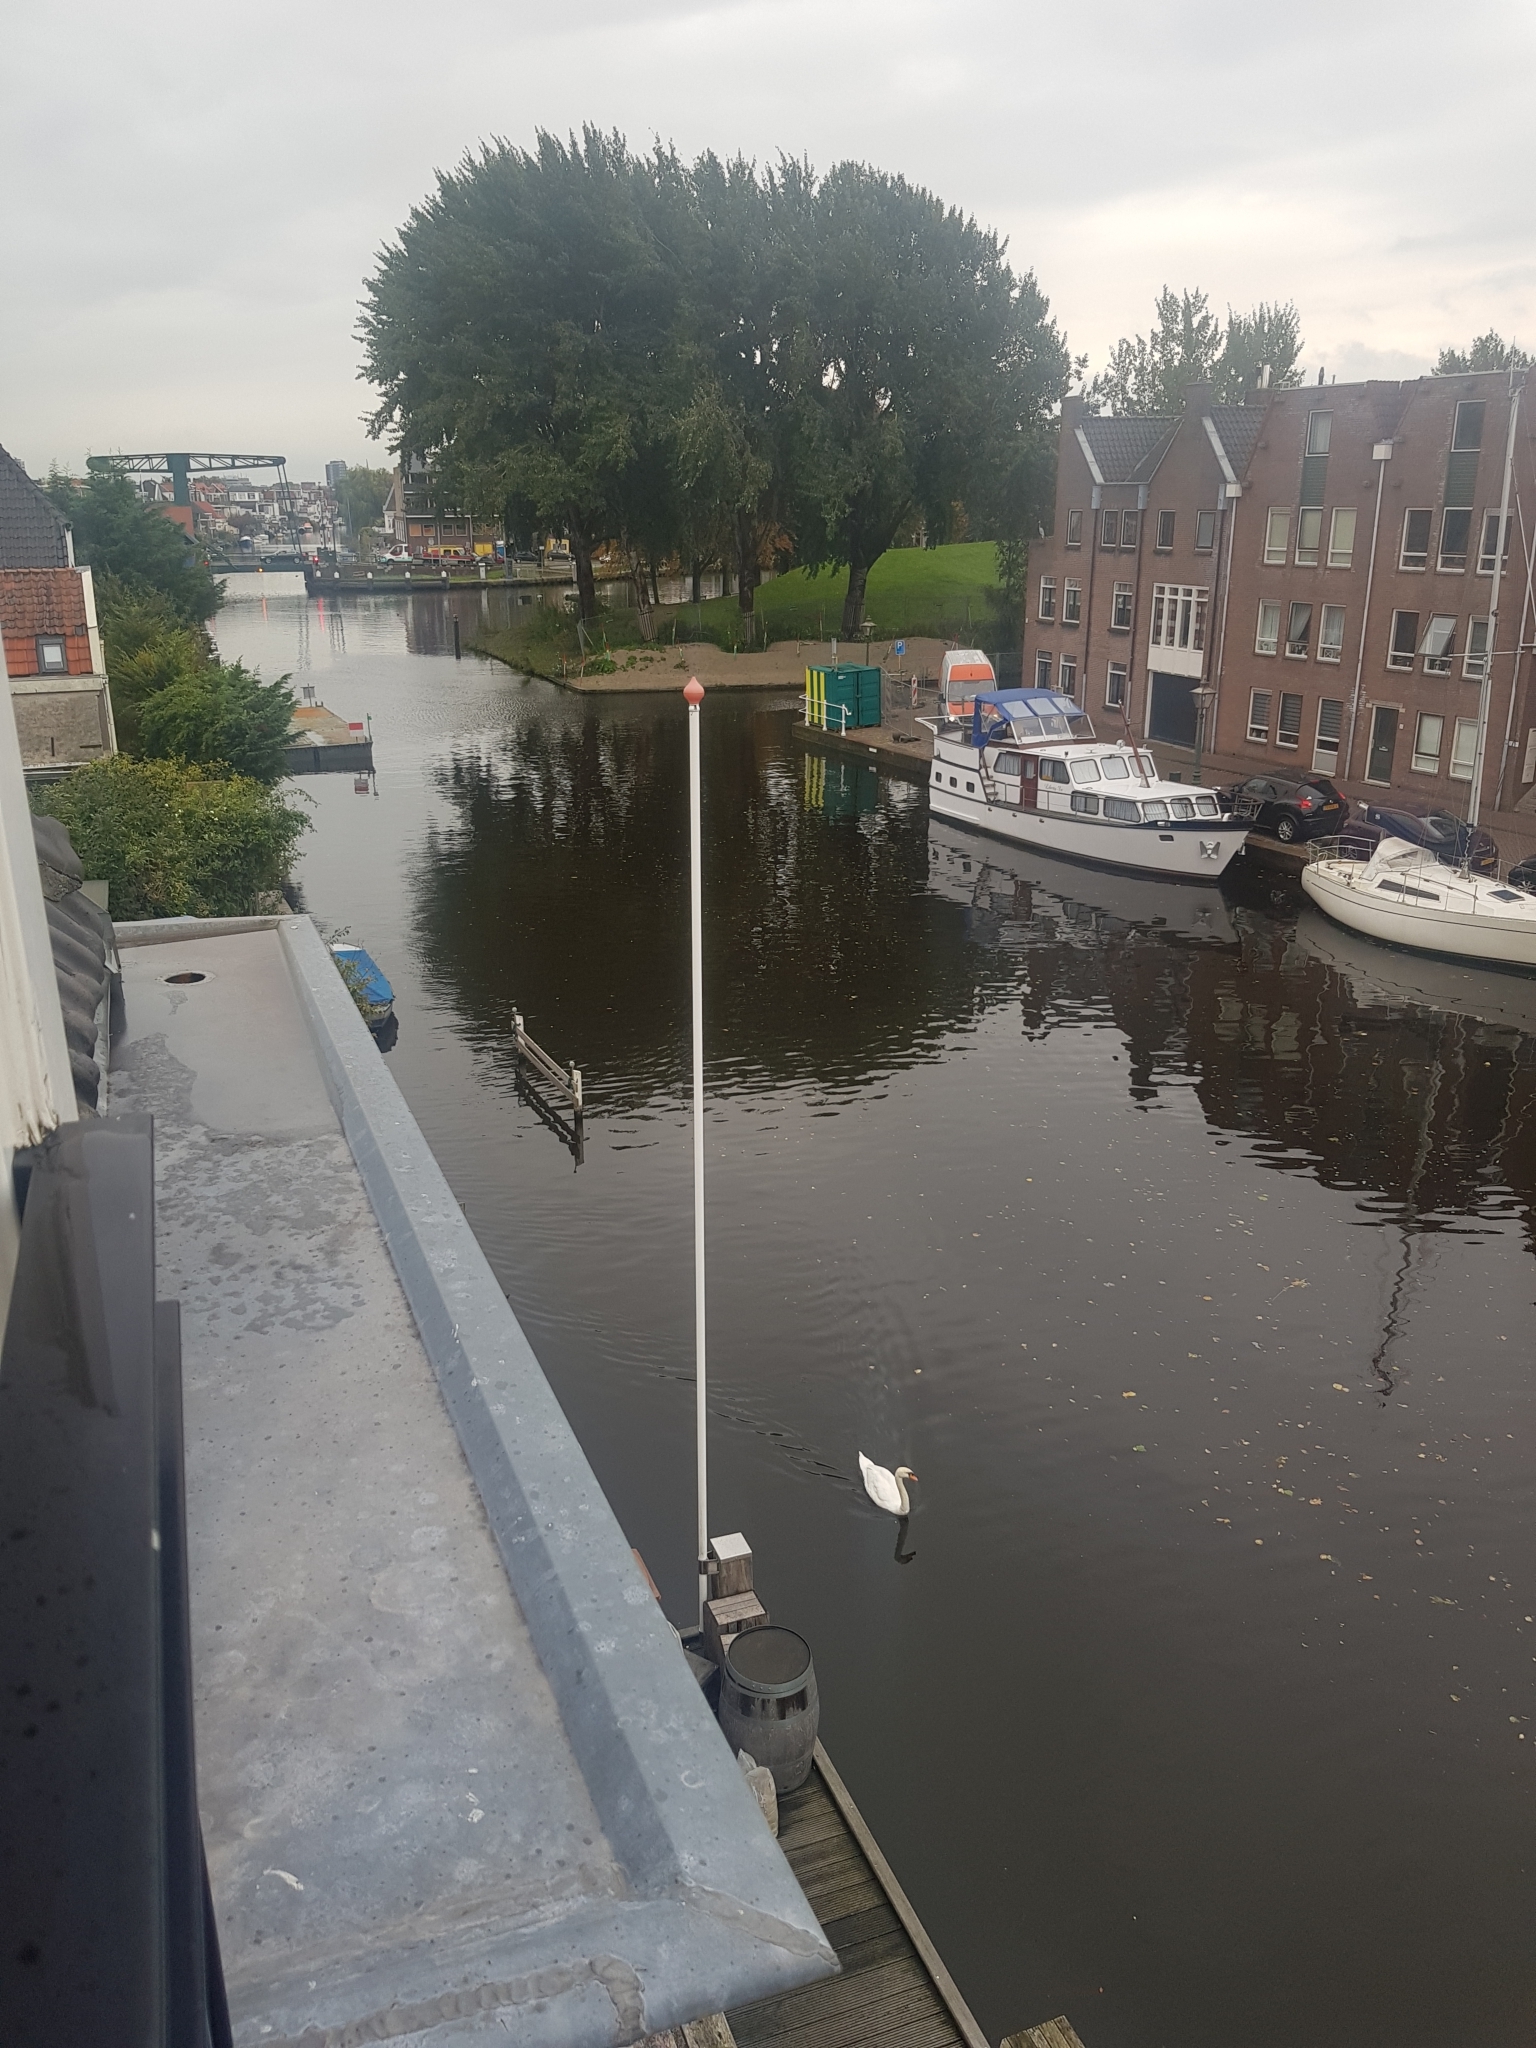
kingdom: Animalia
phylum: Chordata
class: Aves
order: Anseriformes
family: Anatidae
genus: Cygnus
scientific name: Cygnus olor
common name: Mute swan
